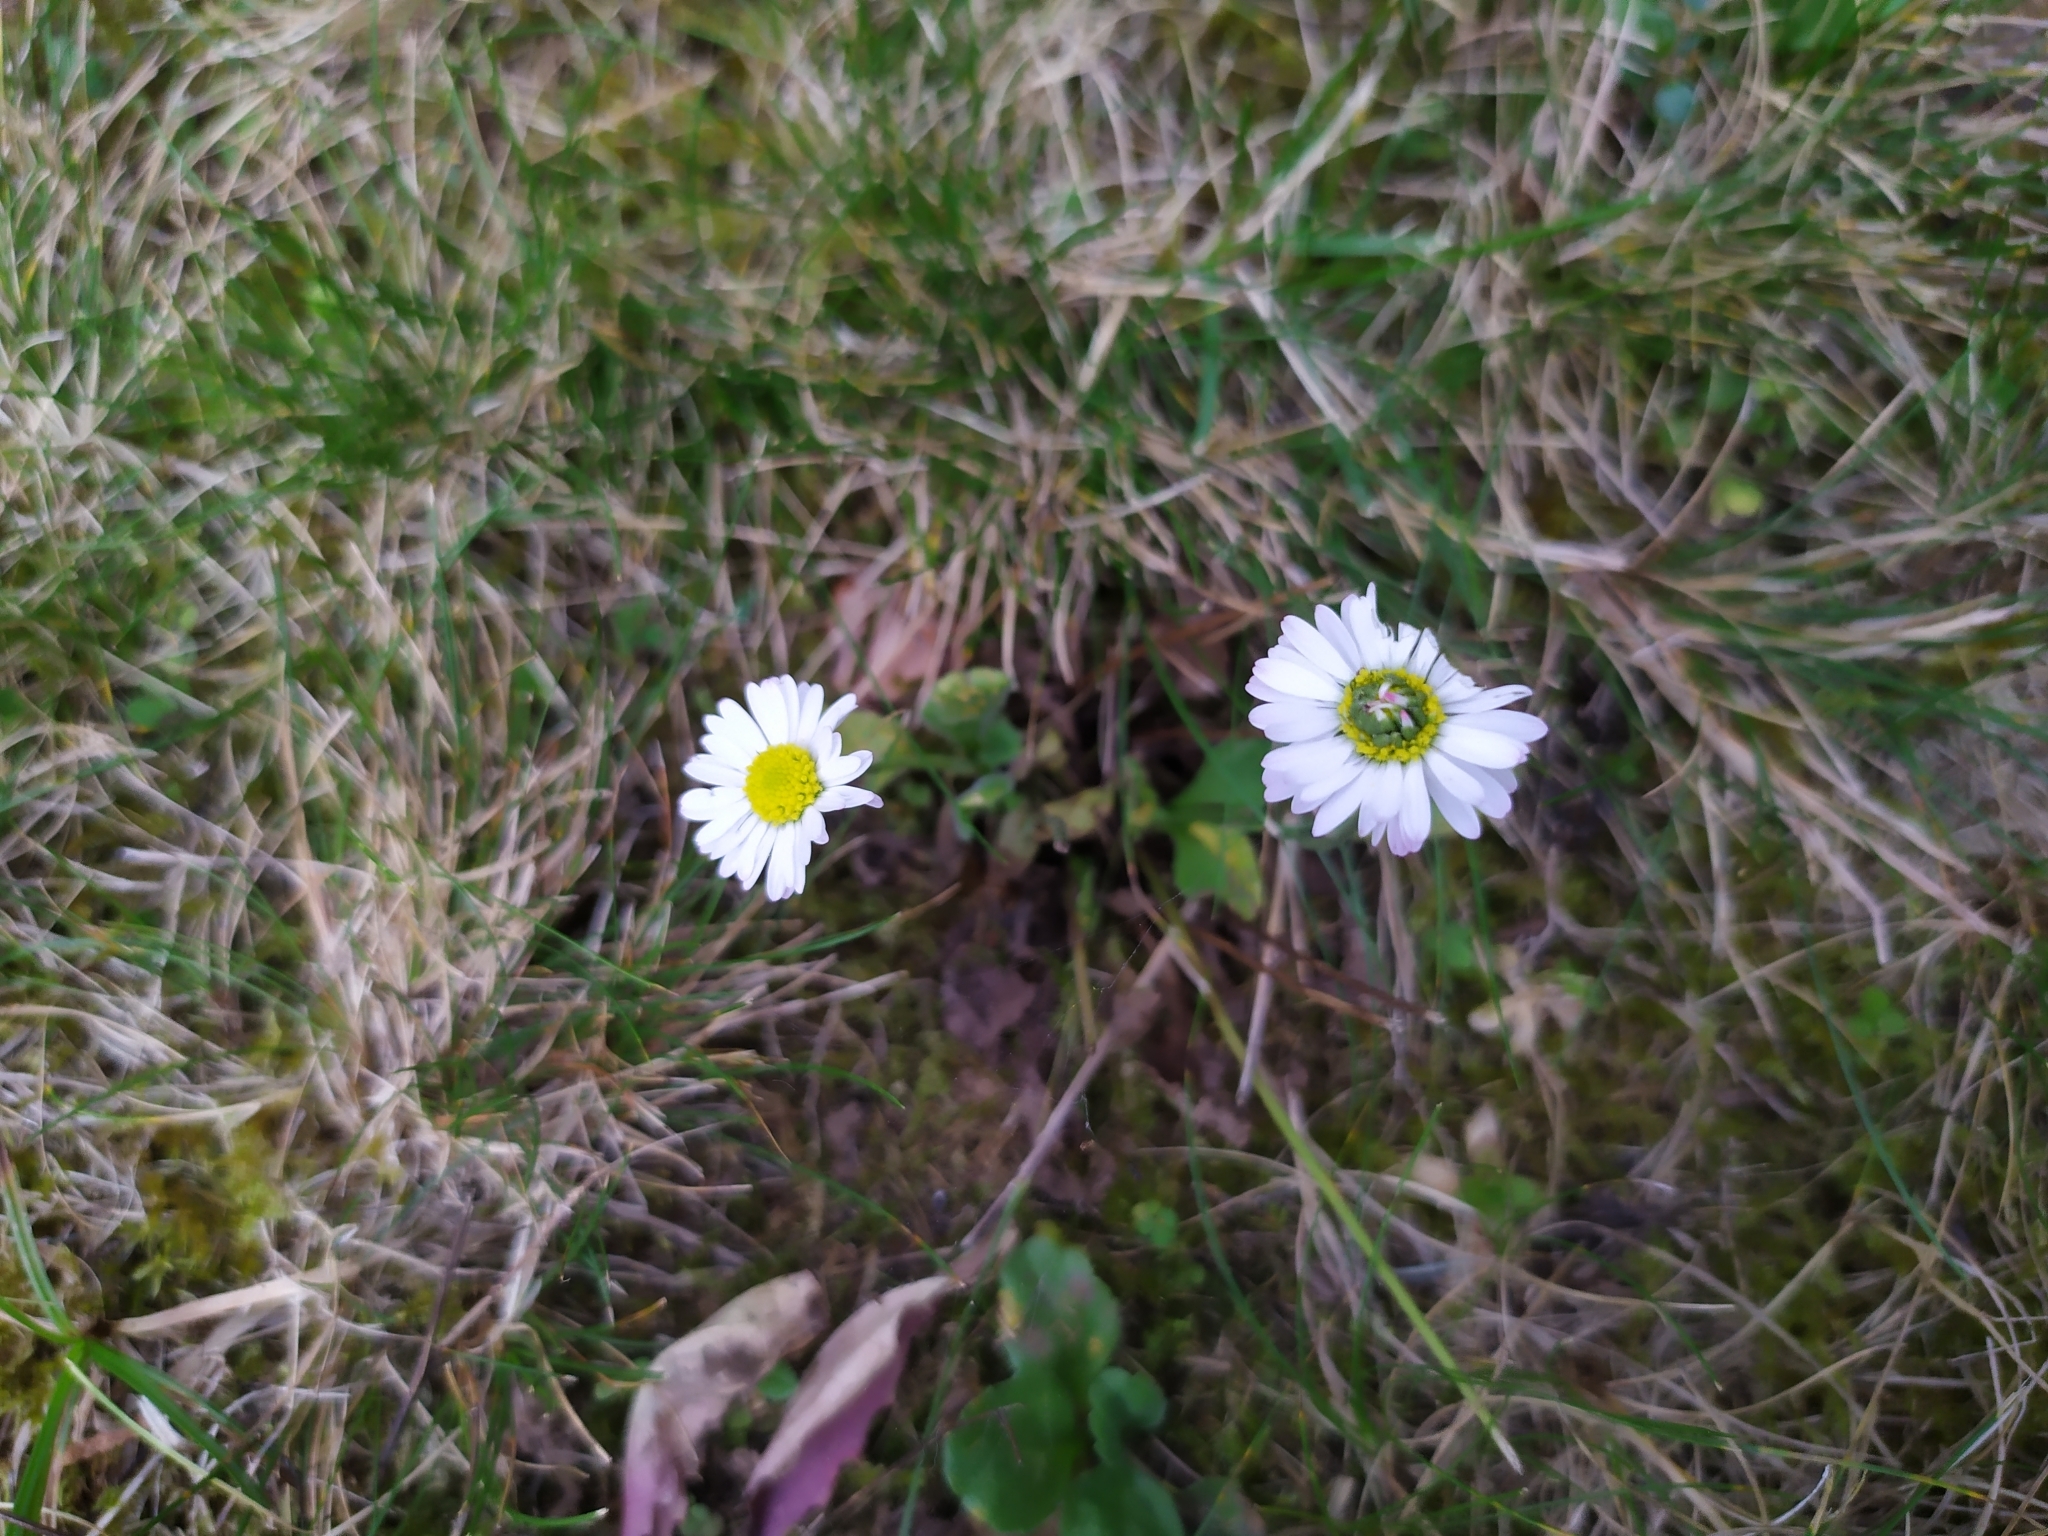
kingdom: Plantae
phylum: Tracheophyta
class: Magnoliopsida
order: Asterales
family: Asteraceae
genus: Bellis
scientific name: Bellis perennis
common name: Lawndaisy
